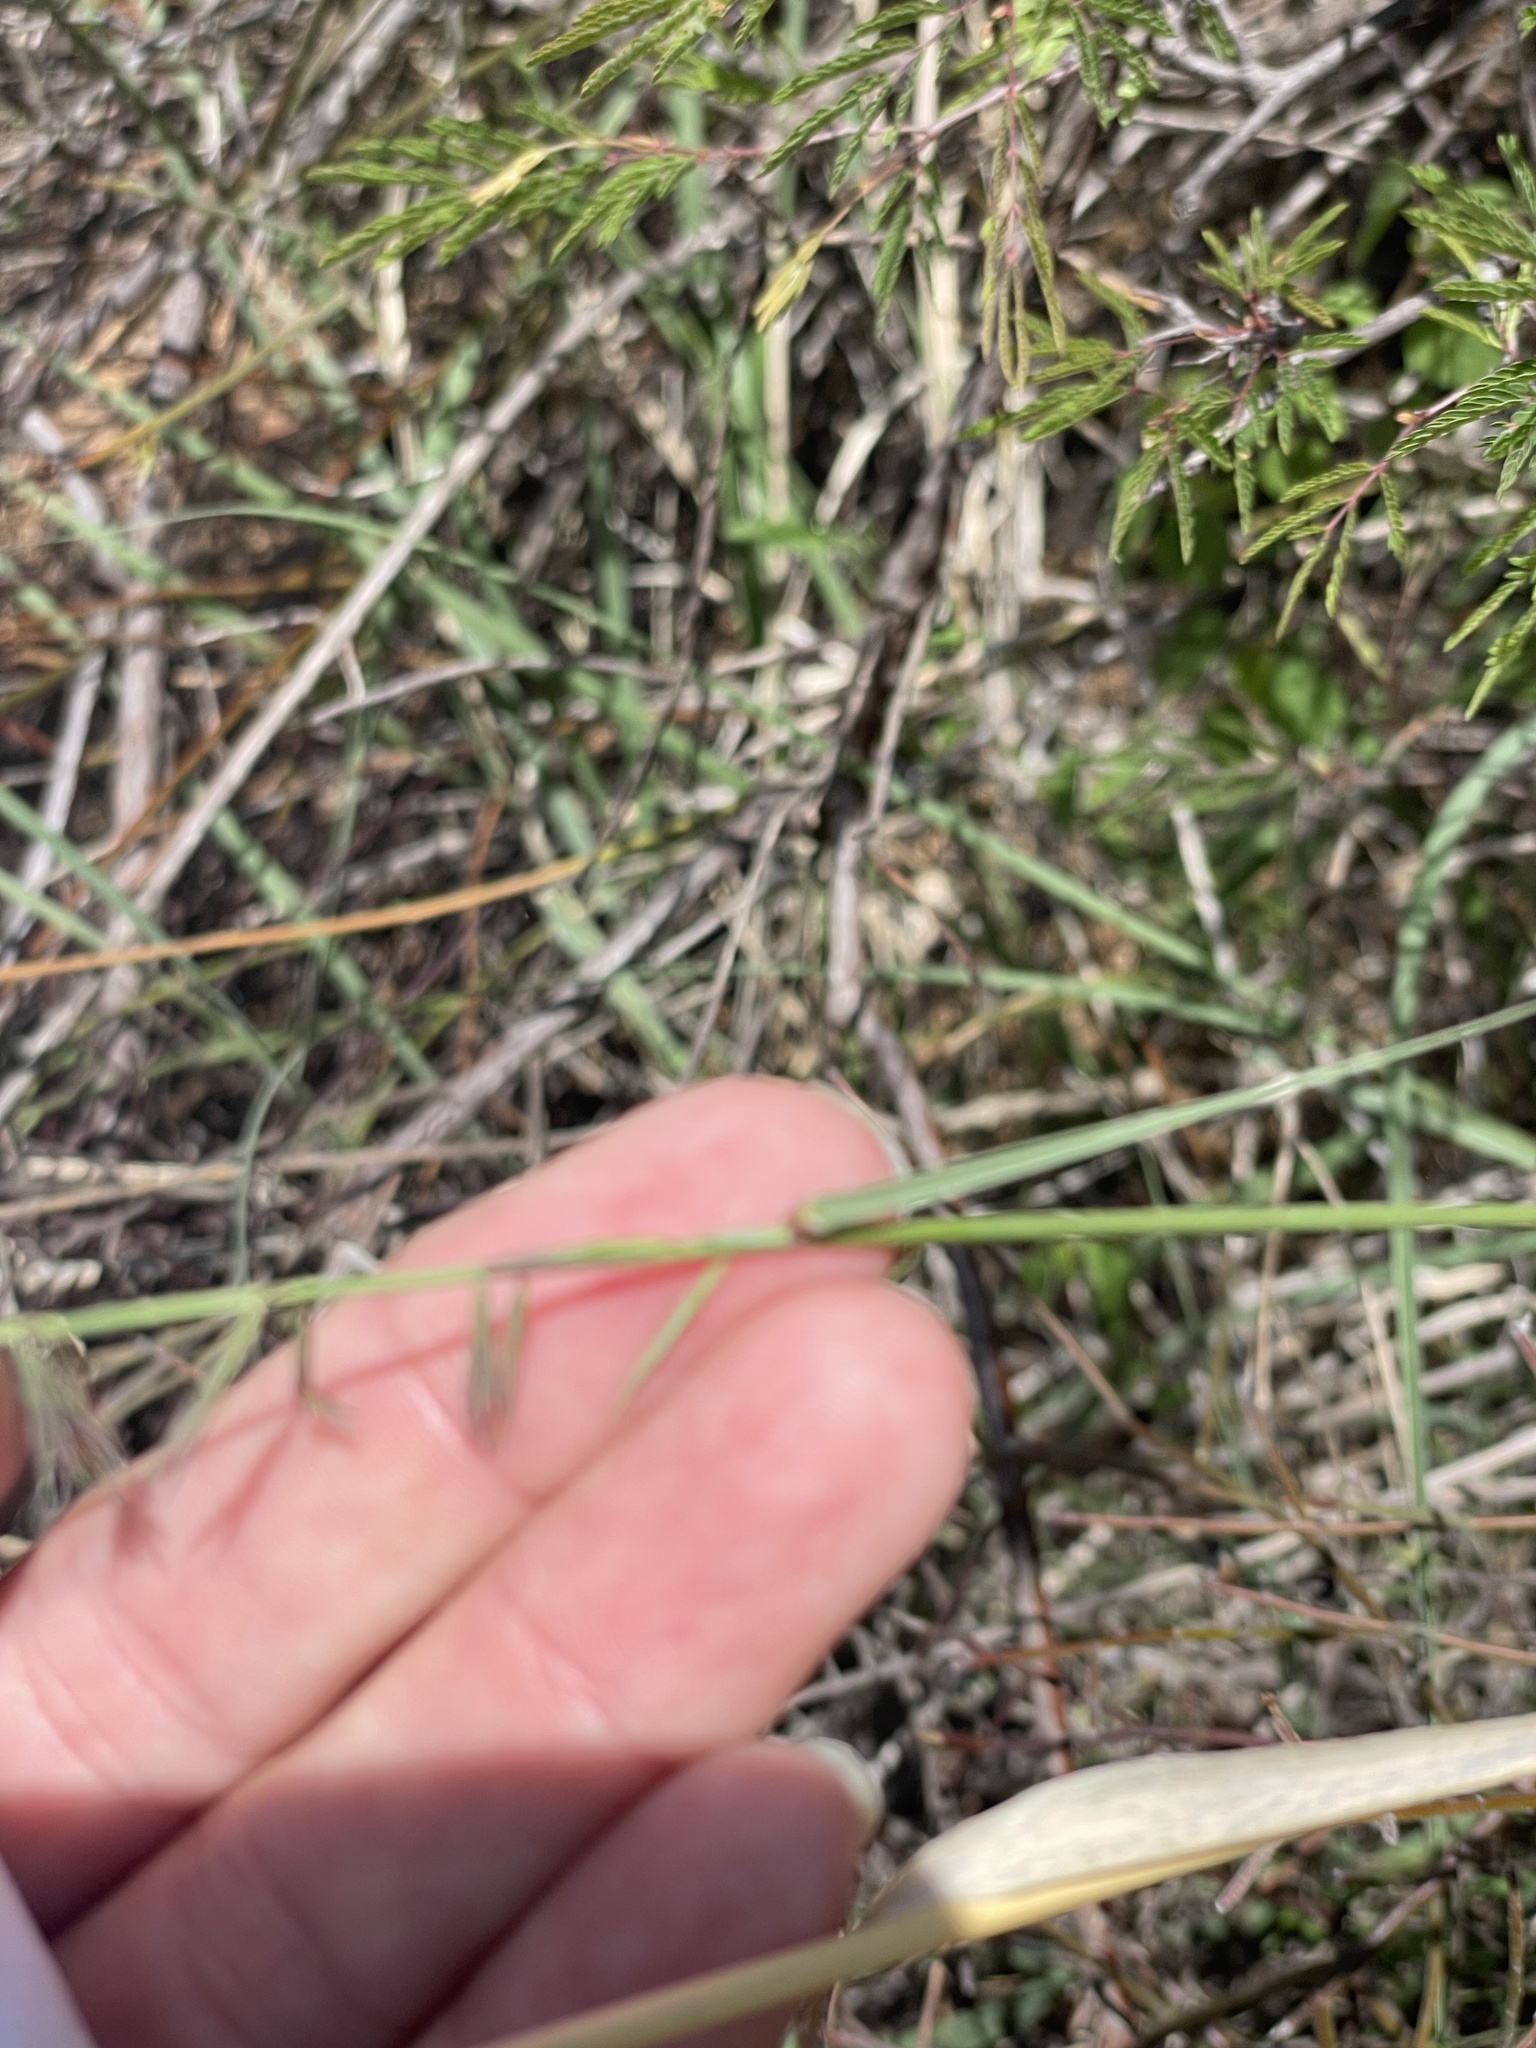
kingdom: Plantae
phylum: Tracheophyta
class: Liliopsida
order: Poales
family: Poaceae
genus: Bouteloua
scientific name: Bouteloua reflexa
